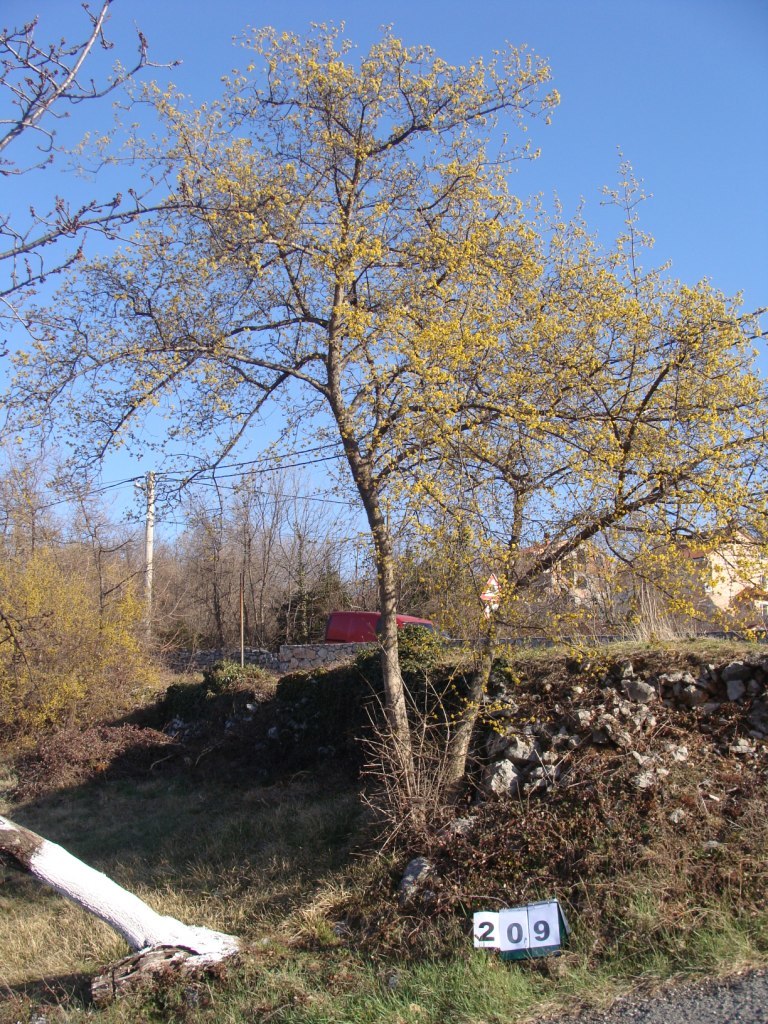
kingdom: Plantae
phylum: Tracheophyta
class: Magnoliopsida
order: Cornales
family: Cornaceae
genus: Cornus
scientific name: Cornus mas
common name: Cornelian-cherry
